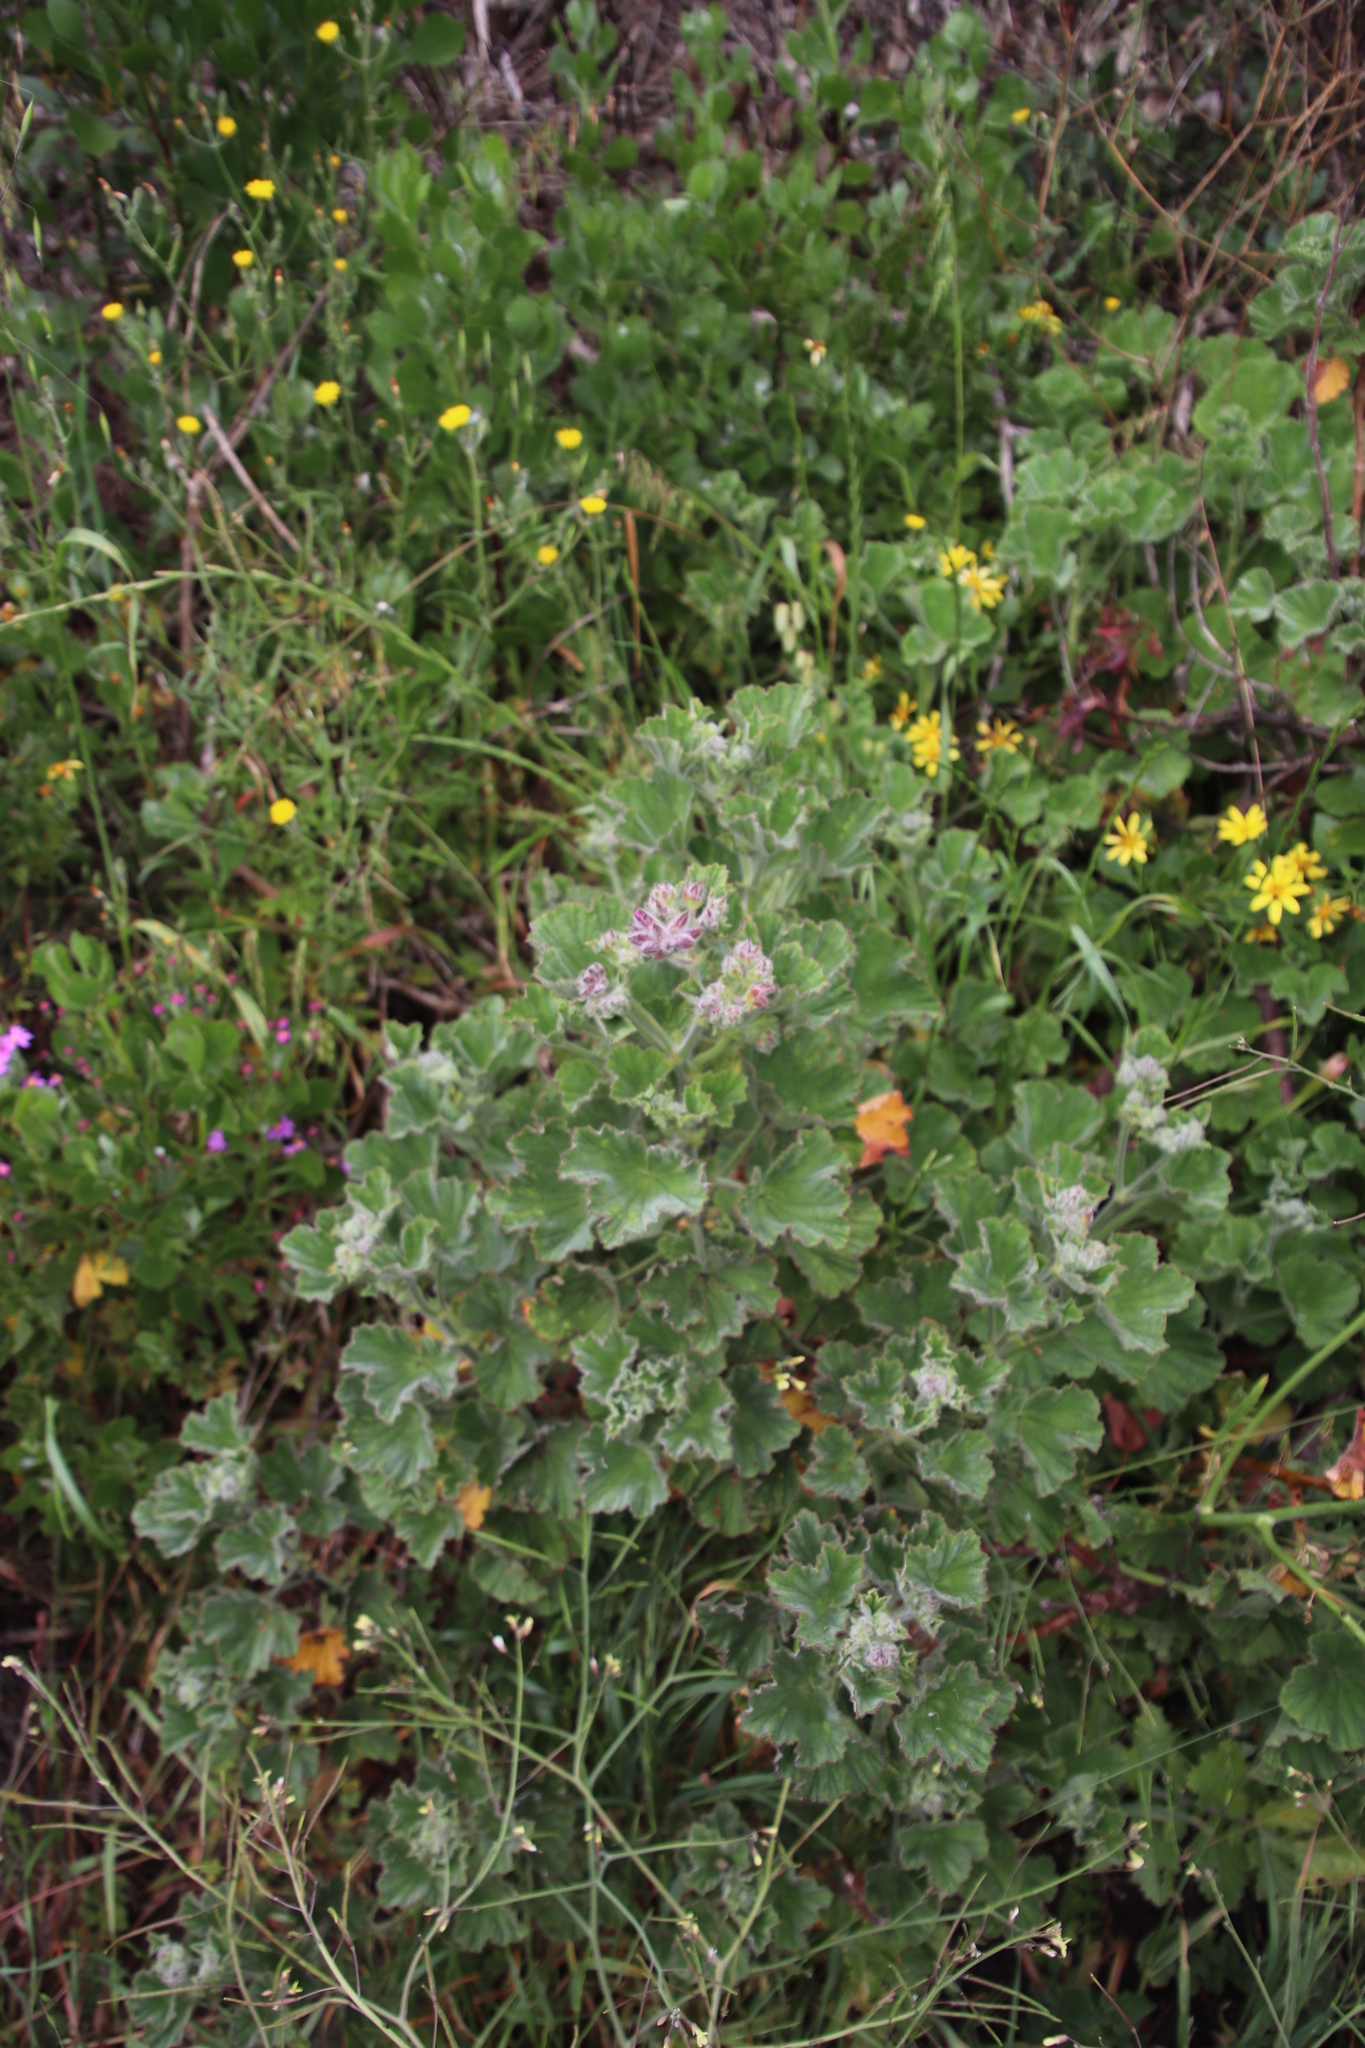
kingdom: Plantae
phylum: Tracheophyta
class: Magnoliopsida
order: Geraniales
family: Geraniaceae
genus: Pelargonium
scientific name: Pelargonium cucullatum
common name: Tree pelargonium
